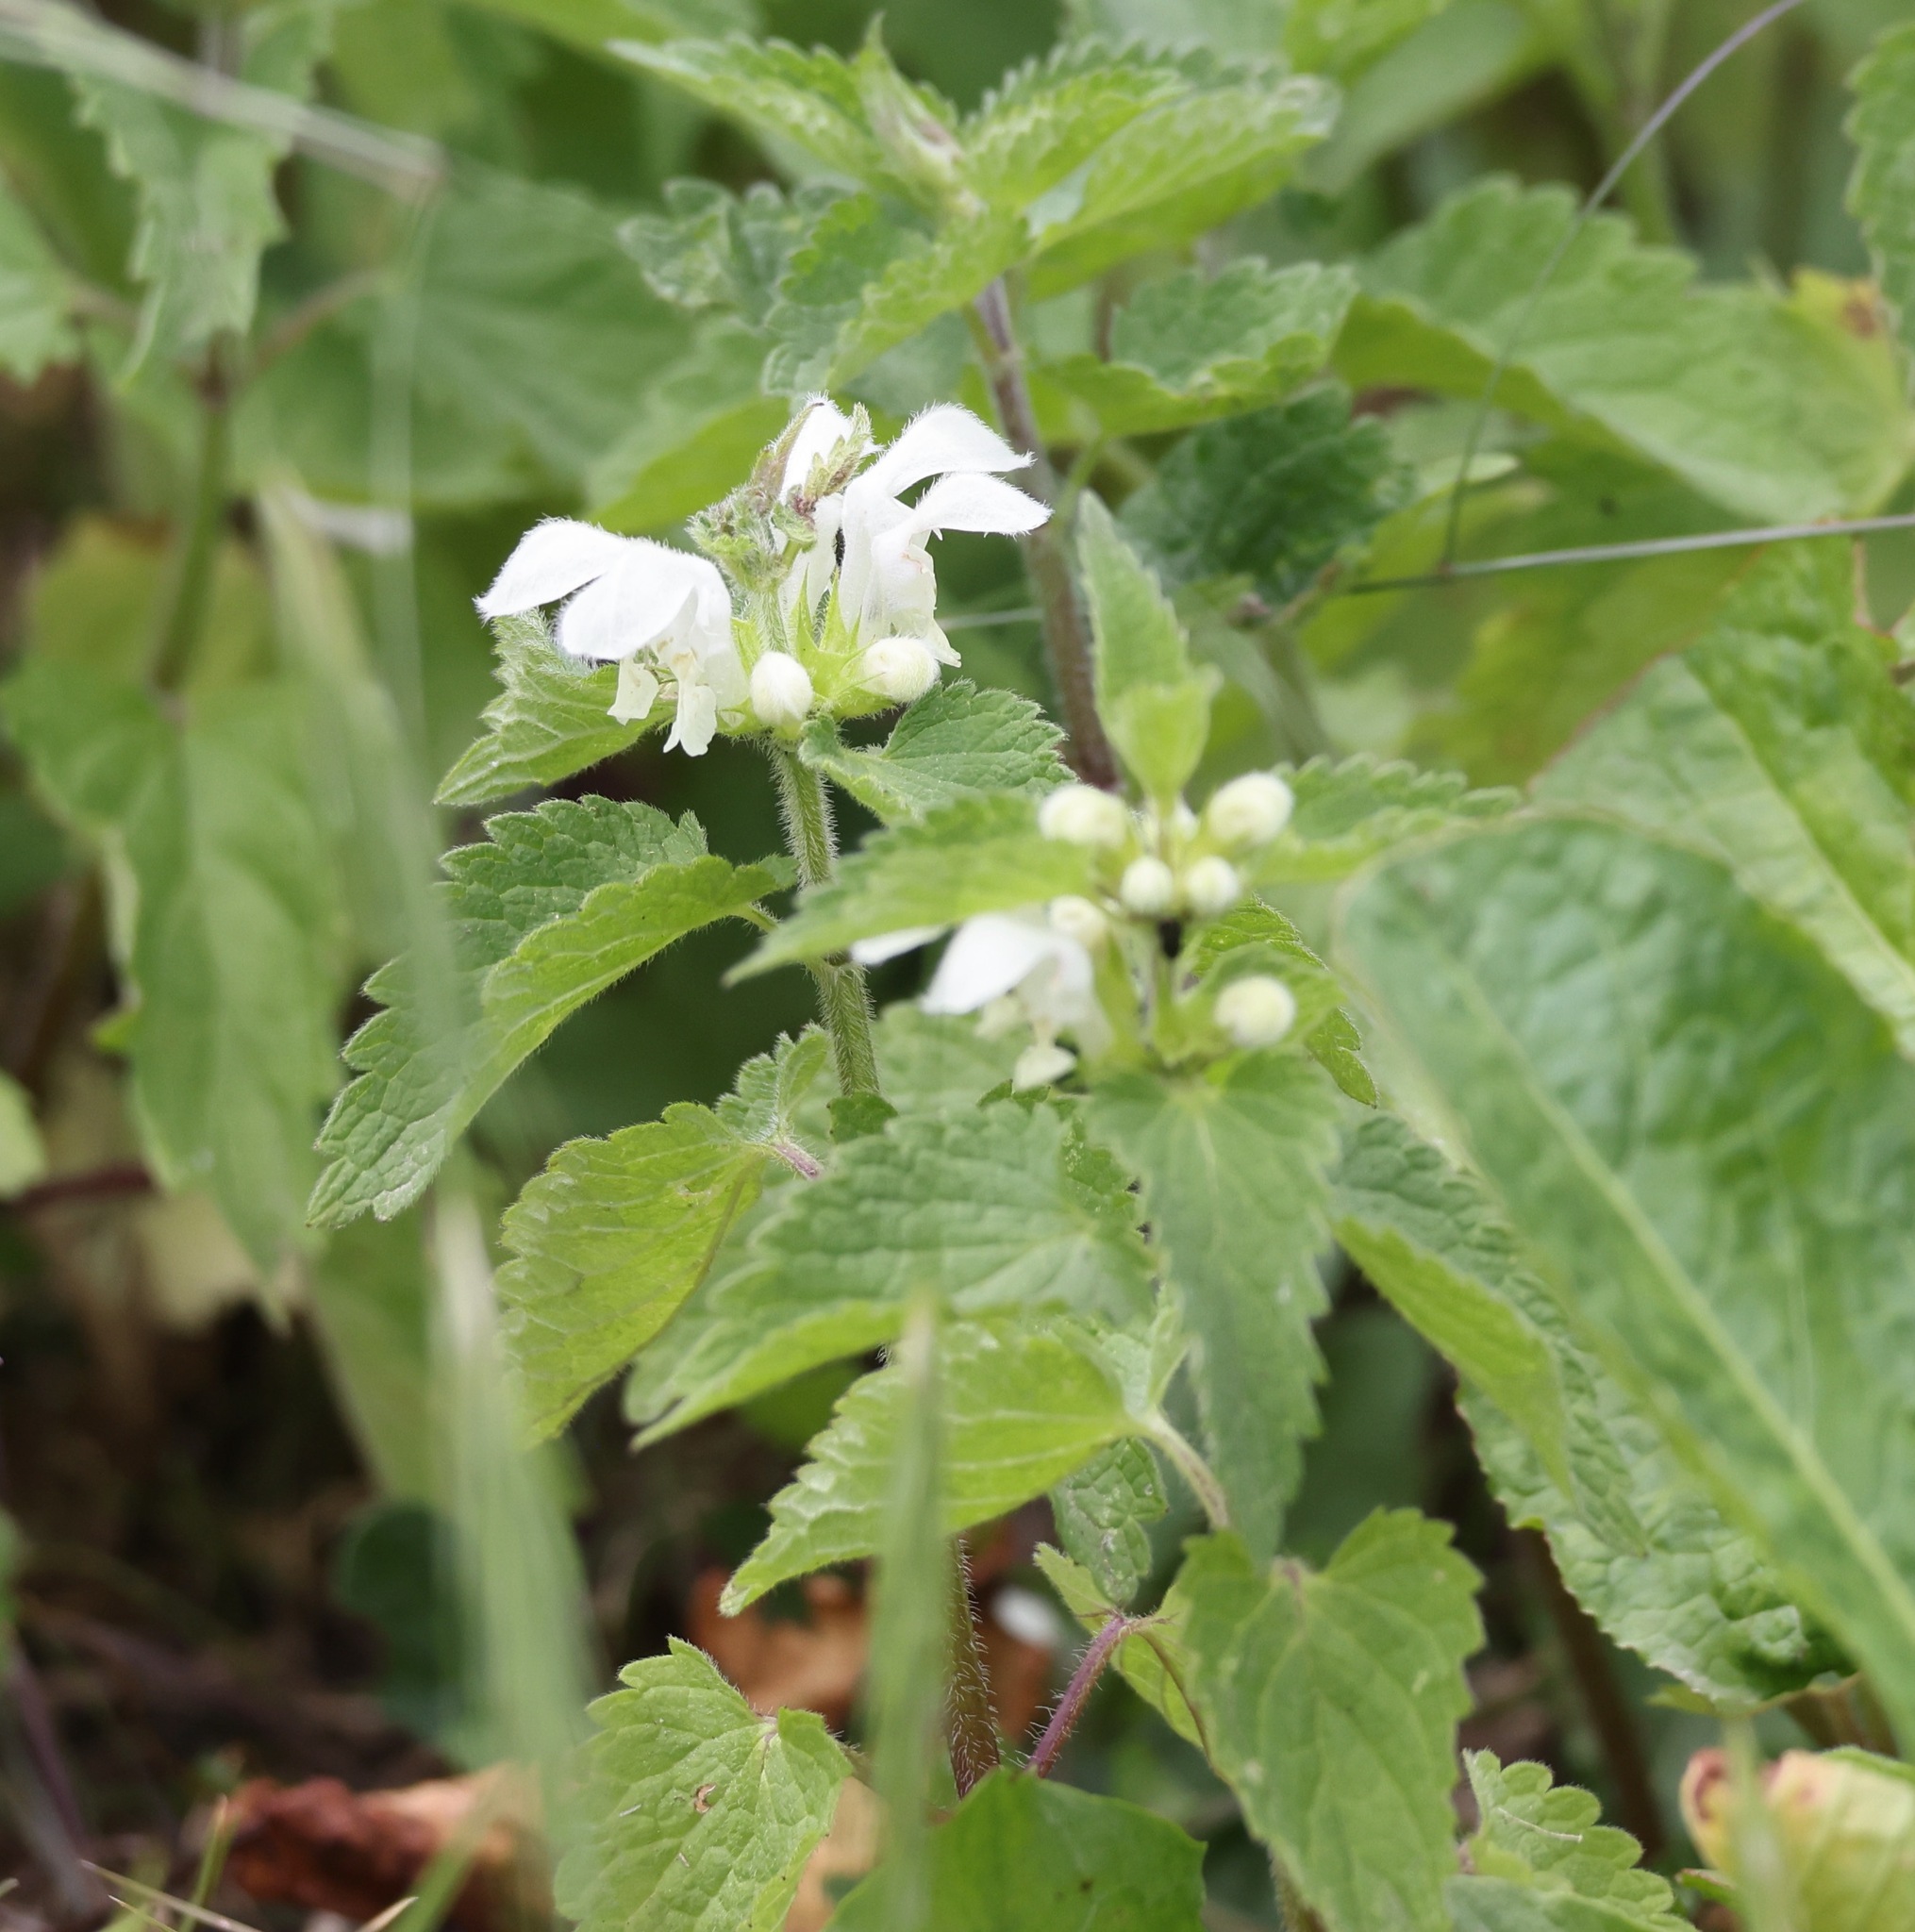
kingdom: Plantae
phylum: Tracheophyta
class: Magnoliopsida
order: Lamiales
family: Lamiaceae
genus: Lamium
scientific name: Lamium album
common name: White dead-nettle
